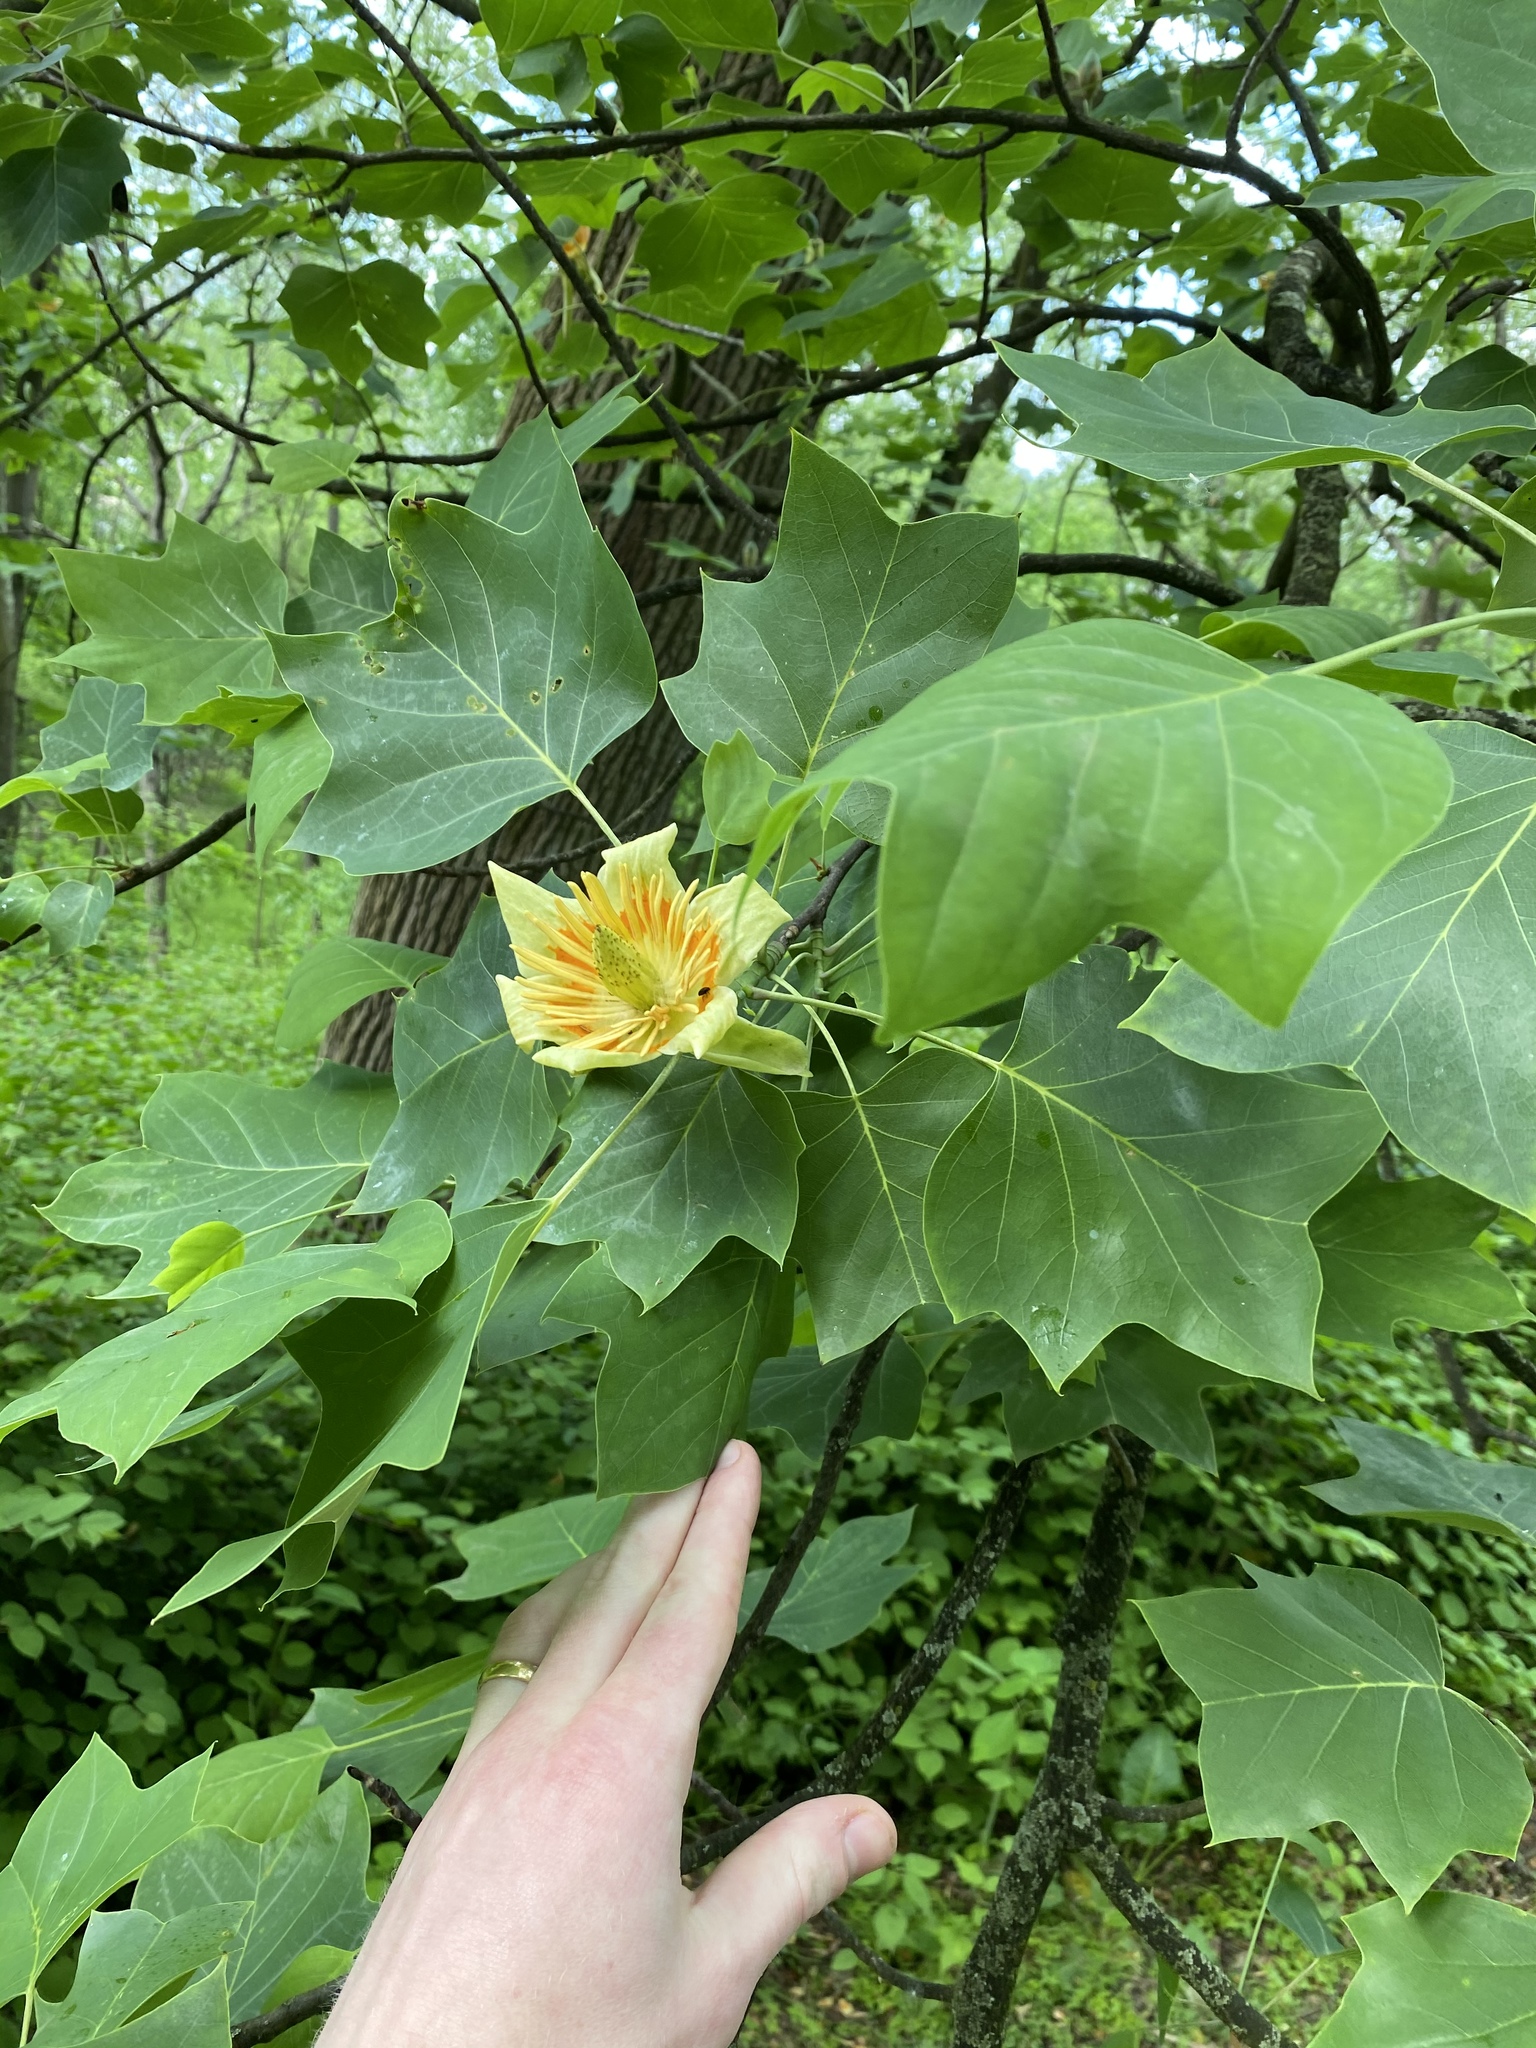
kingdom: Plantae
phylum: Tracheophyta
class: Magnoliopsida
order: Magnoliales
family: Magnoliaceae
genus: Liriodendron
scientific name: Liriodendron tulipifera
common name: Tulip tree
